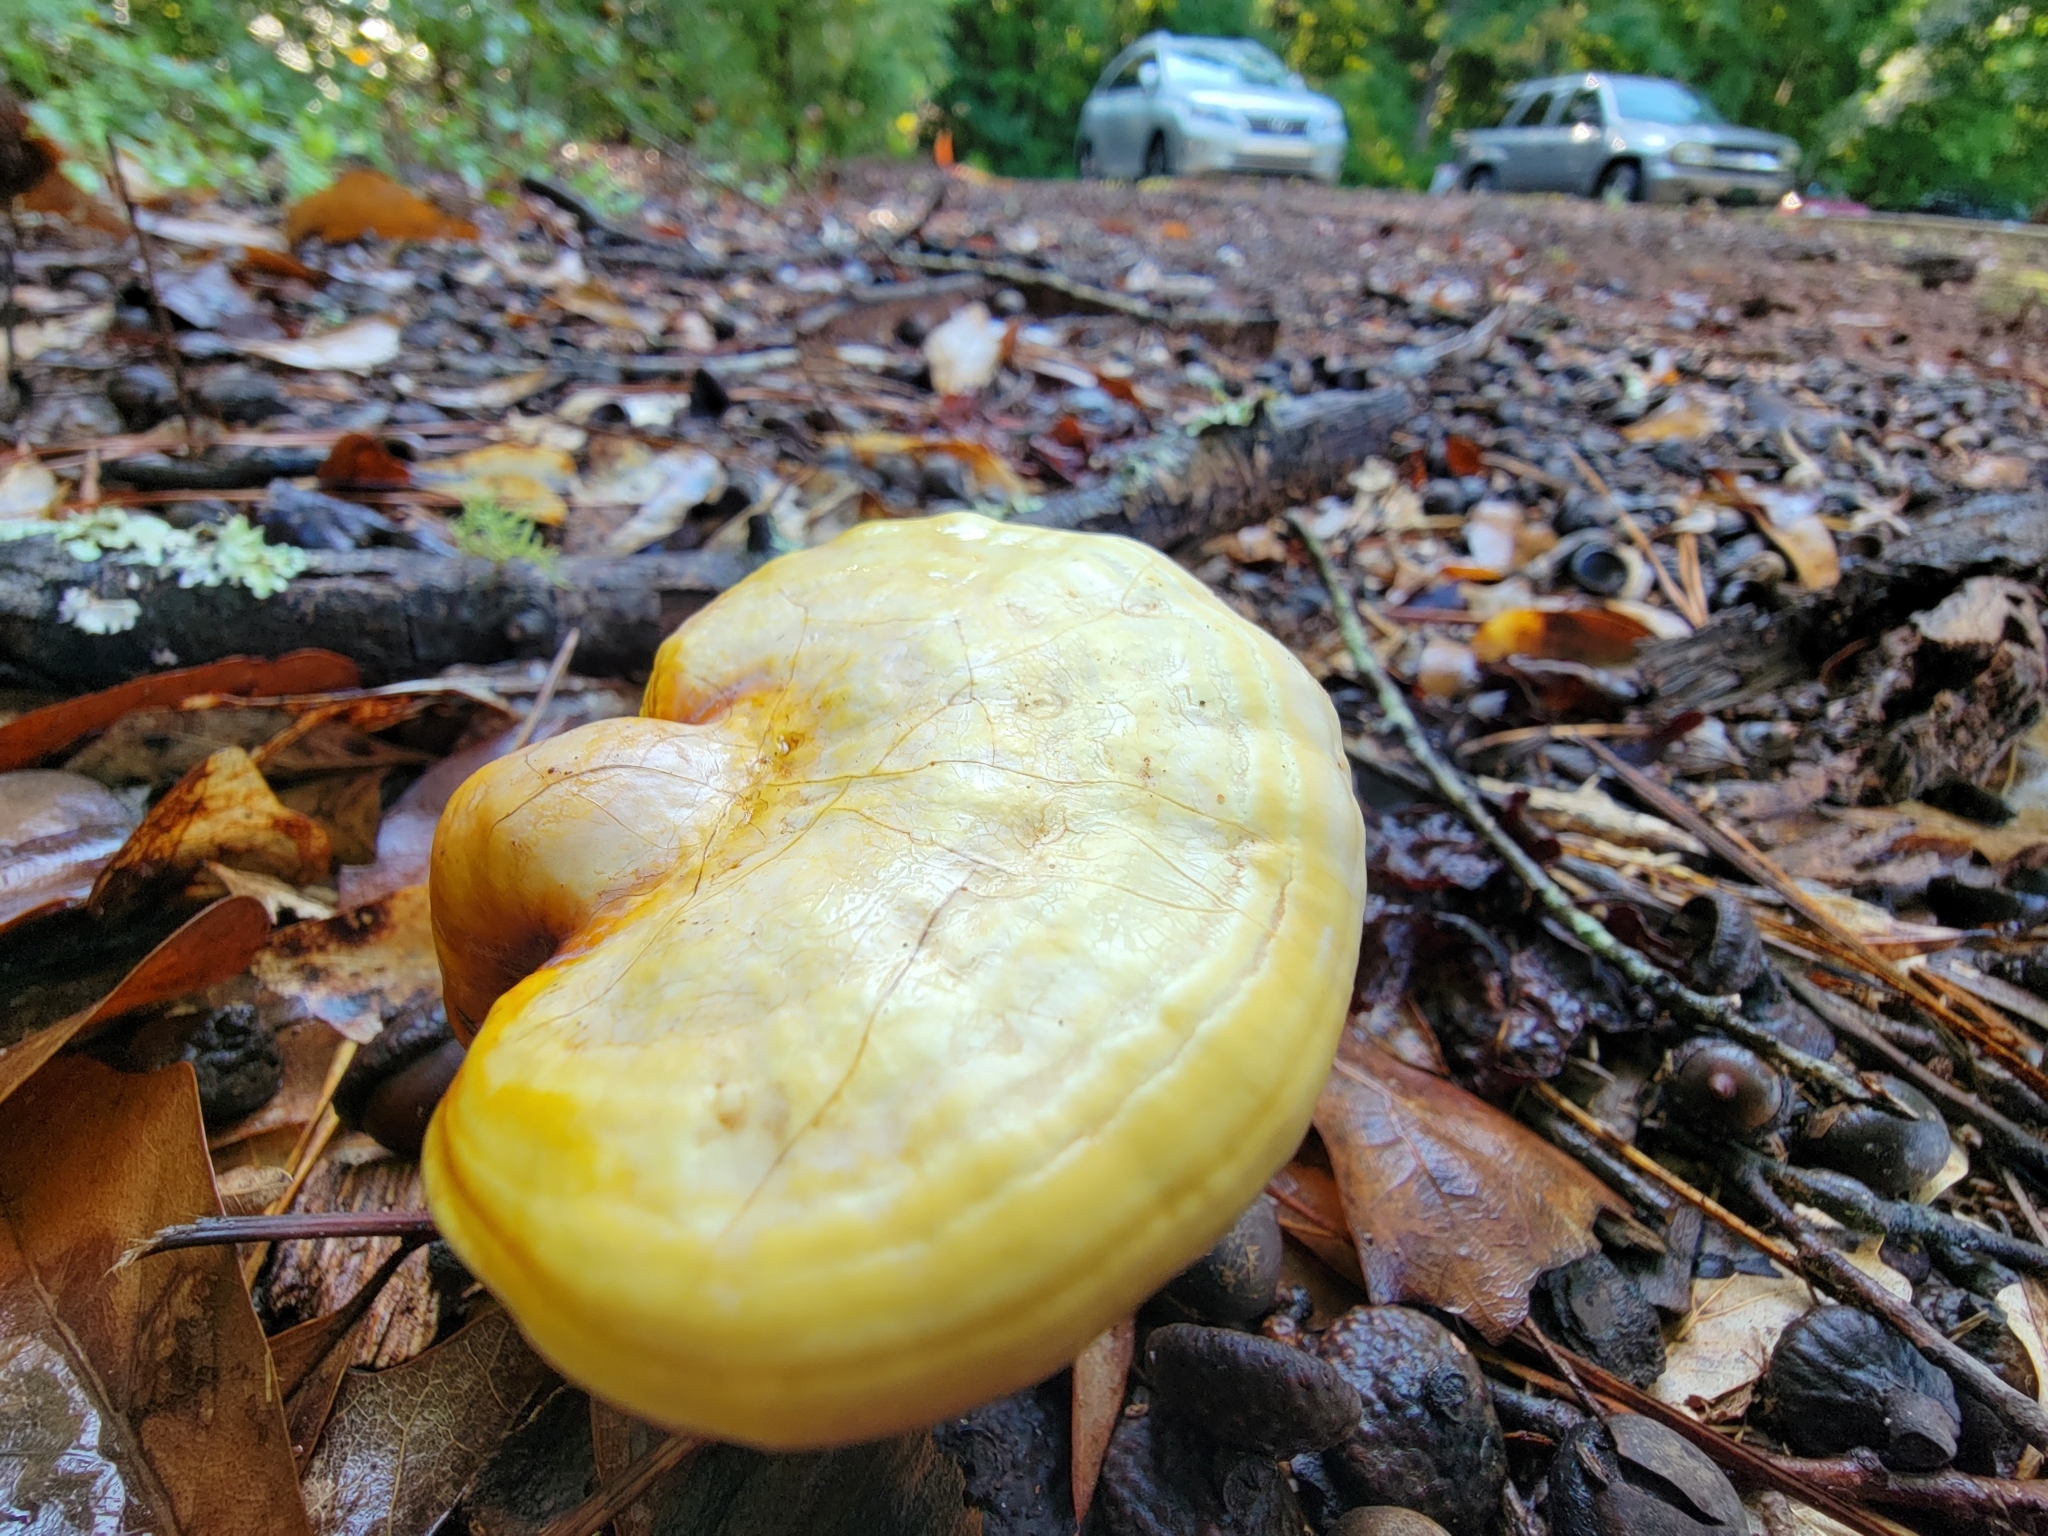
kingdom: Fungi
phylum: Basidiomycota
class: Agaricomycetes
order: Polyporales
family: Polyporaceae
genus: Ganoderma
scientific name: Ganoderma curtisii
